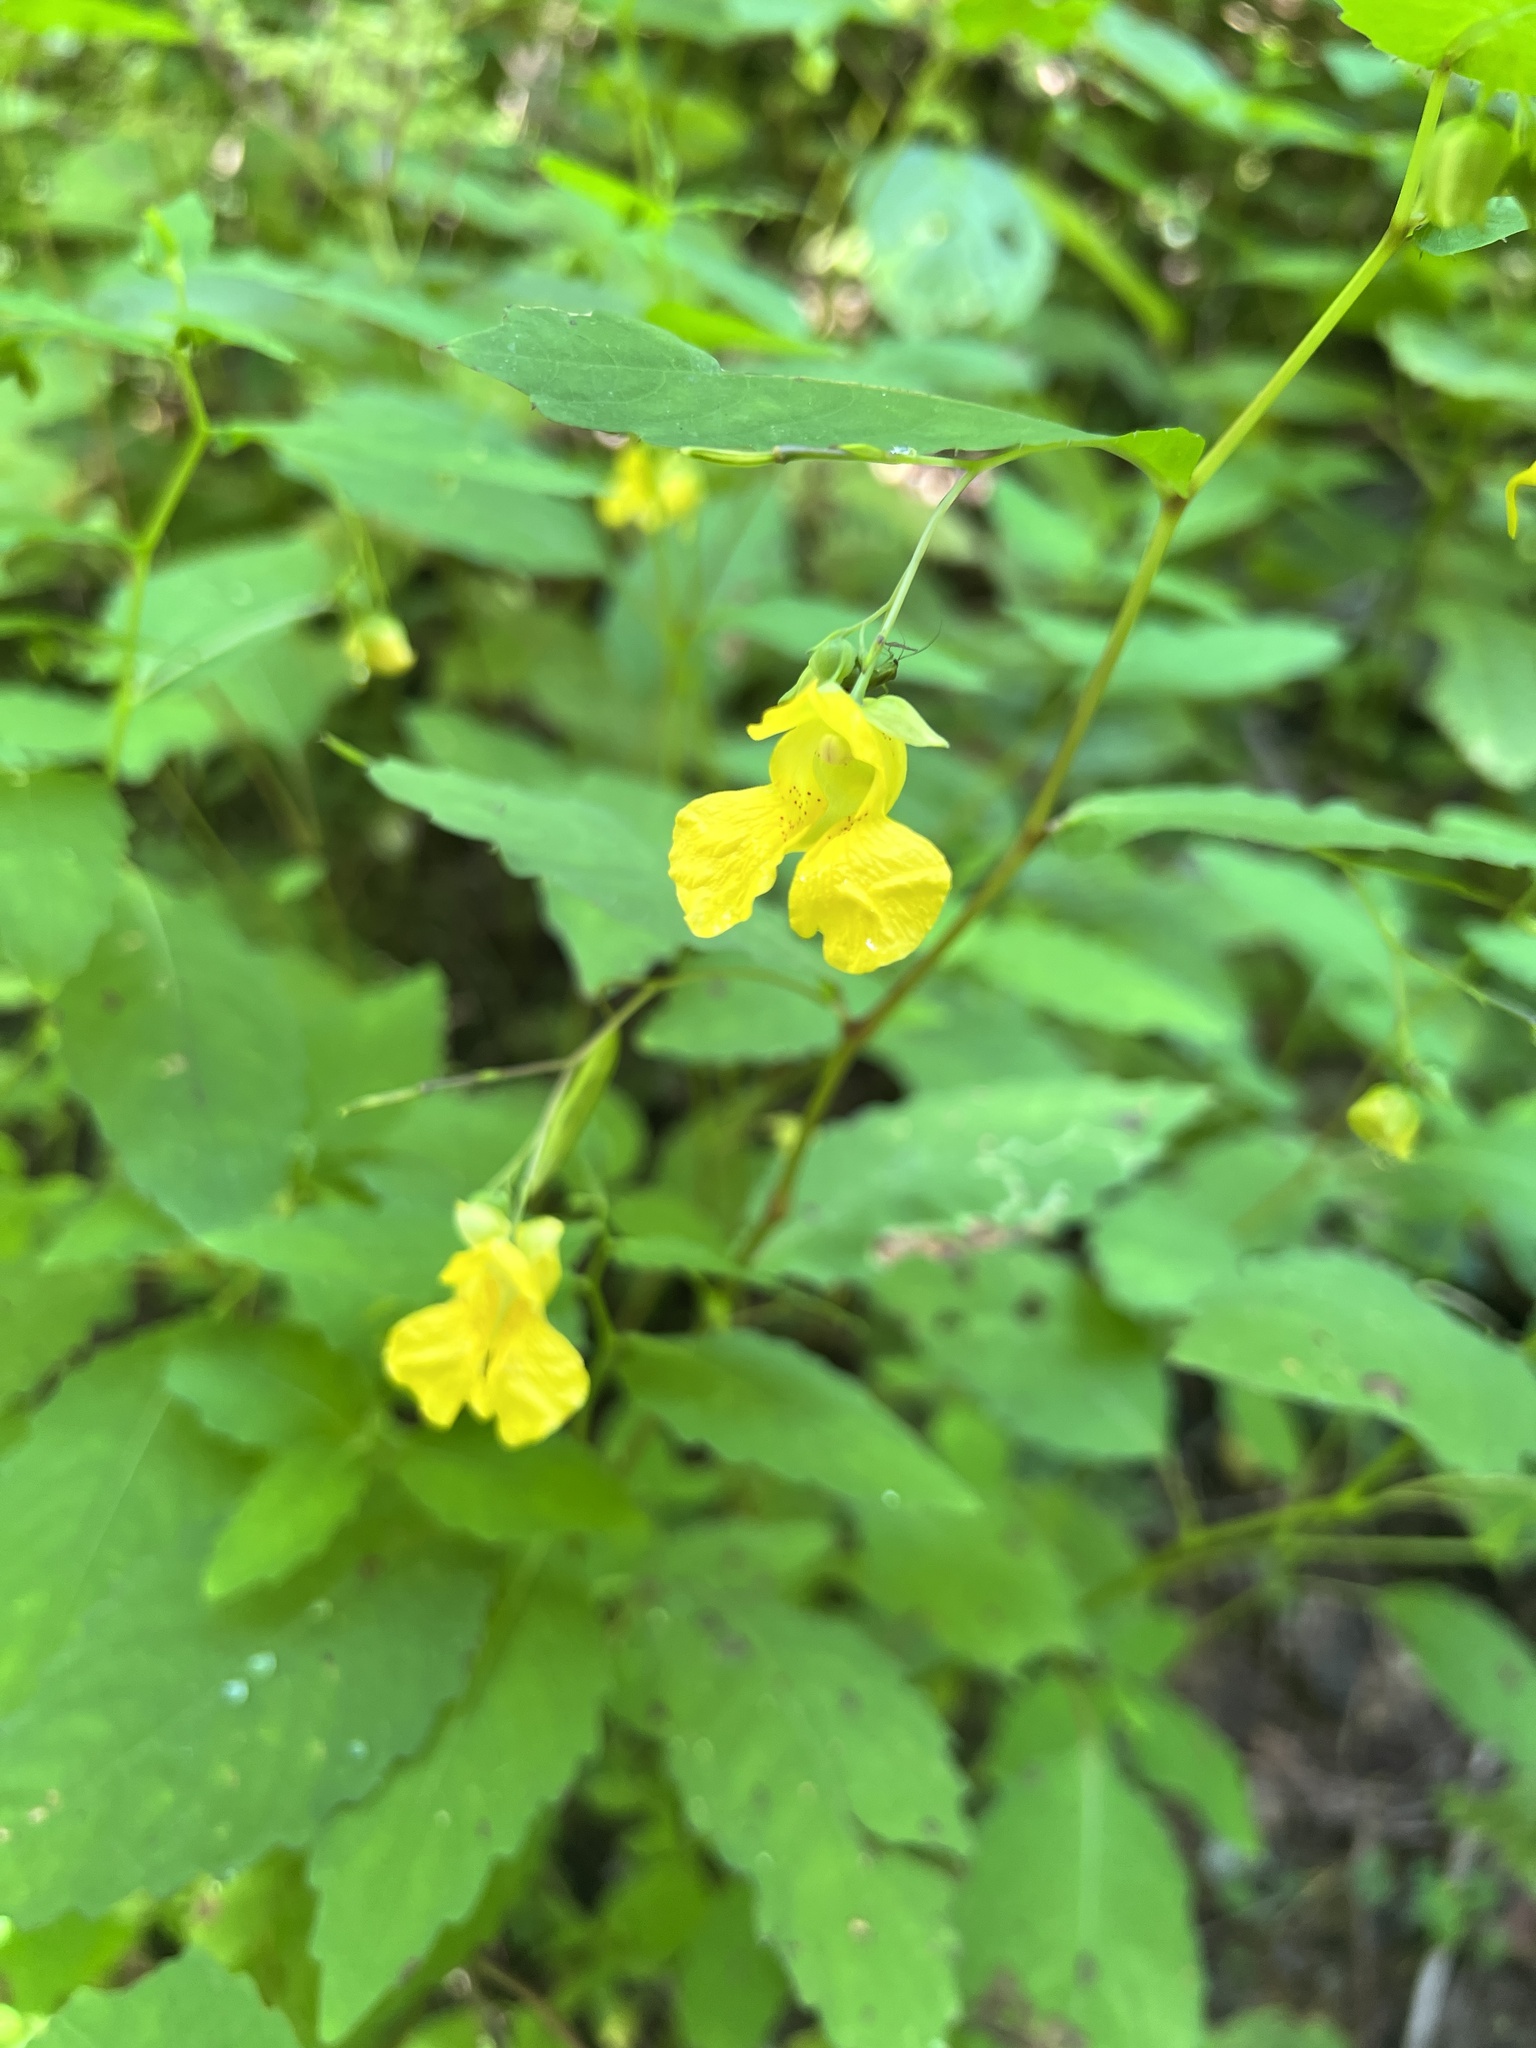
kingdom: Plantae
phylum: Tracheophyta
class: Magnoliopsida
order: Ericales
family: Balsaminaceae
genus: Impatiens
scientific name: Impatiens pallida
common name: Pale snapweed
